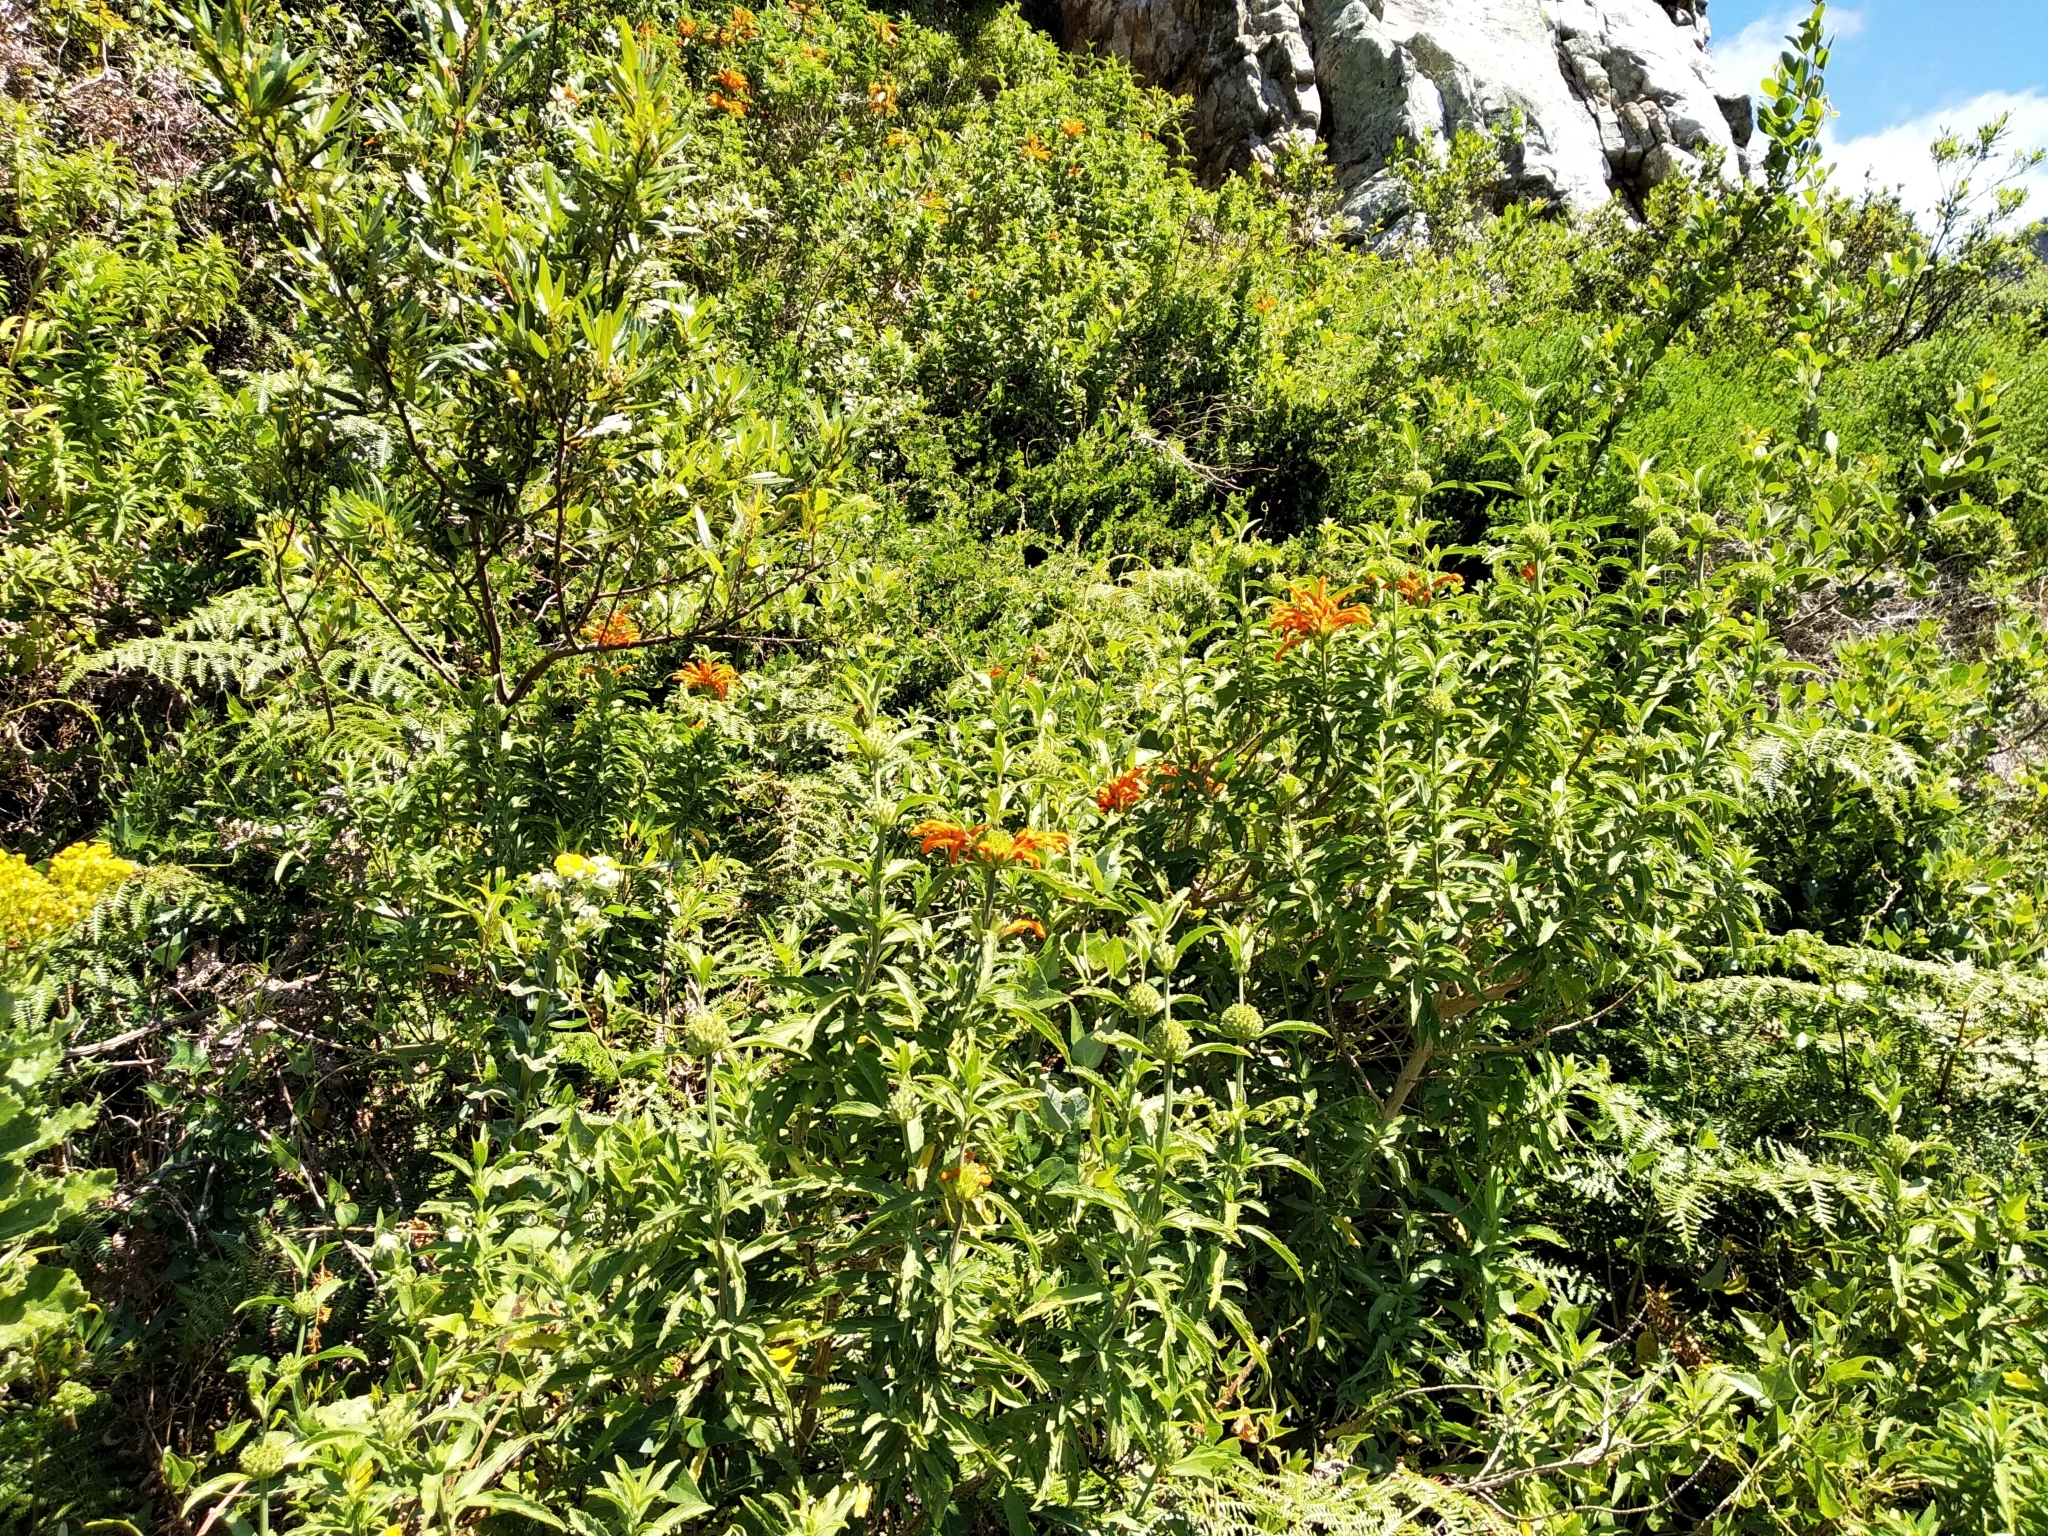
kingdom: Plantae
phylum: Tracheophyta
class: Magnoliopsida
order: Lamiales
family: Lamiaceae
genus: Leonotis
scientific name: Leonotis leonurus
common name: Lion's ear
